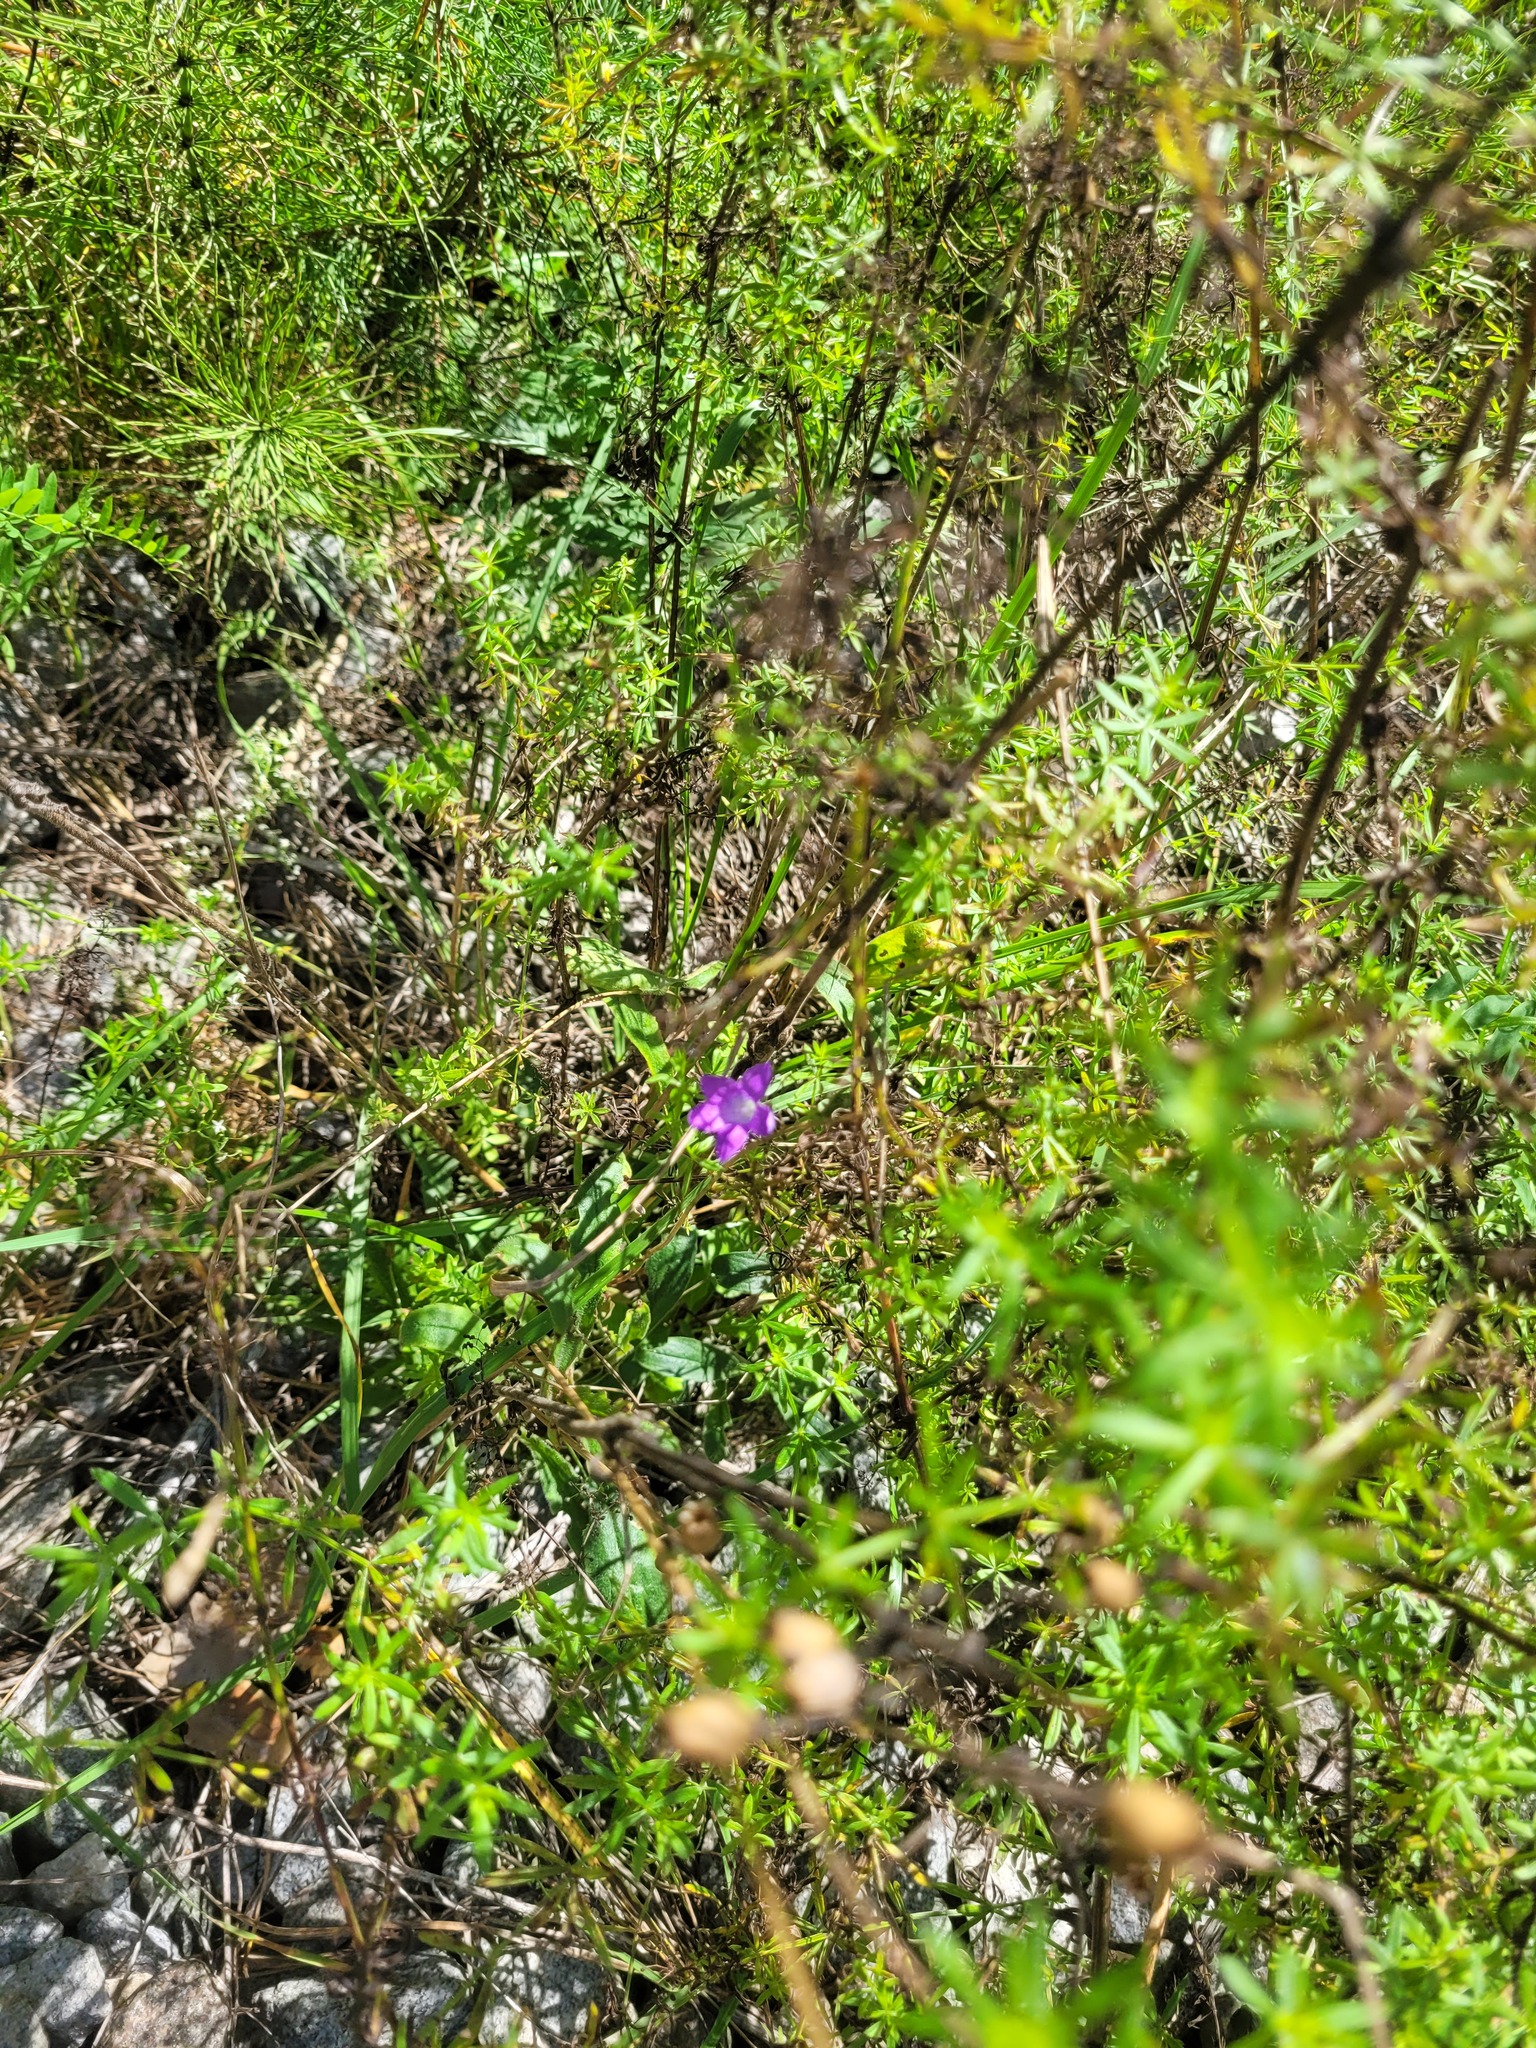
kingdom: Plantae
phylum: Tracheophyta
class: Magnoliopsida
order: Asterales
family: Campanulaceae
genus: Campanula
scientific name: Campanula patula
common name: Spreading bellflower
